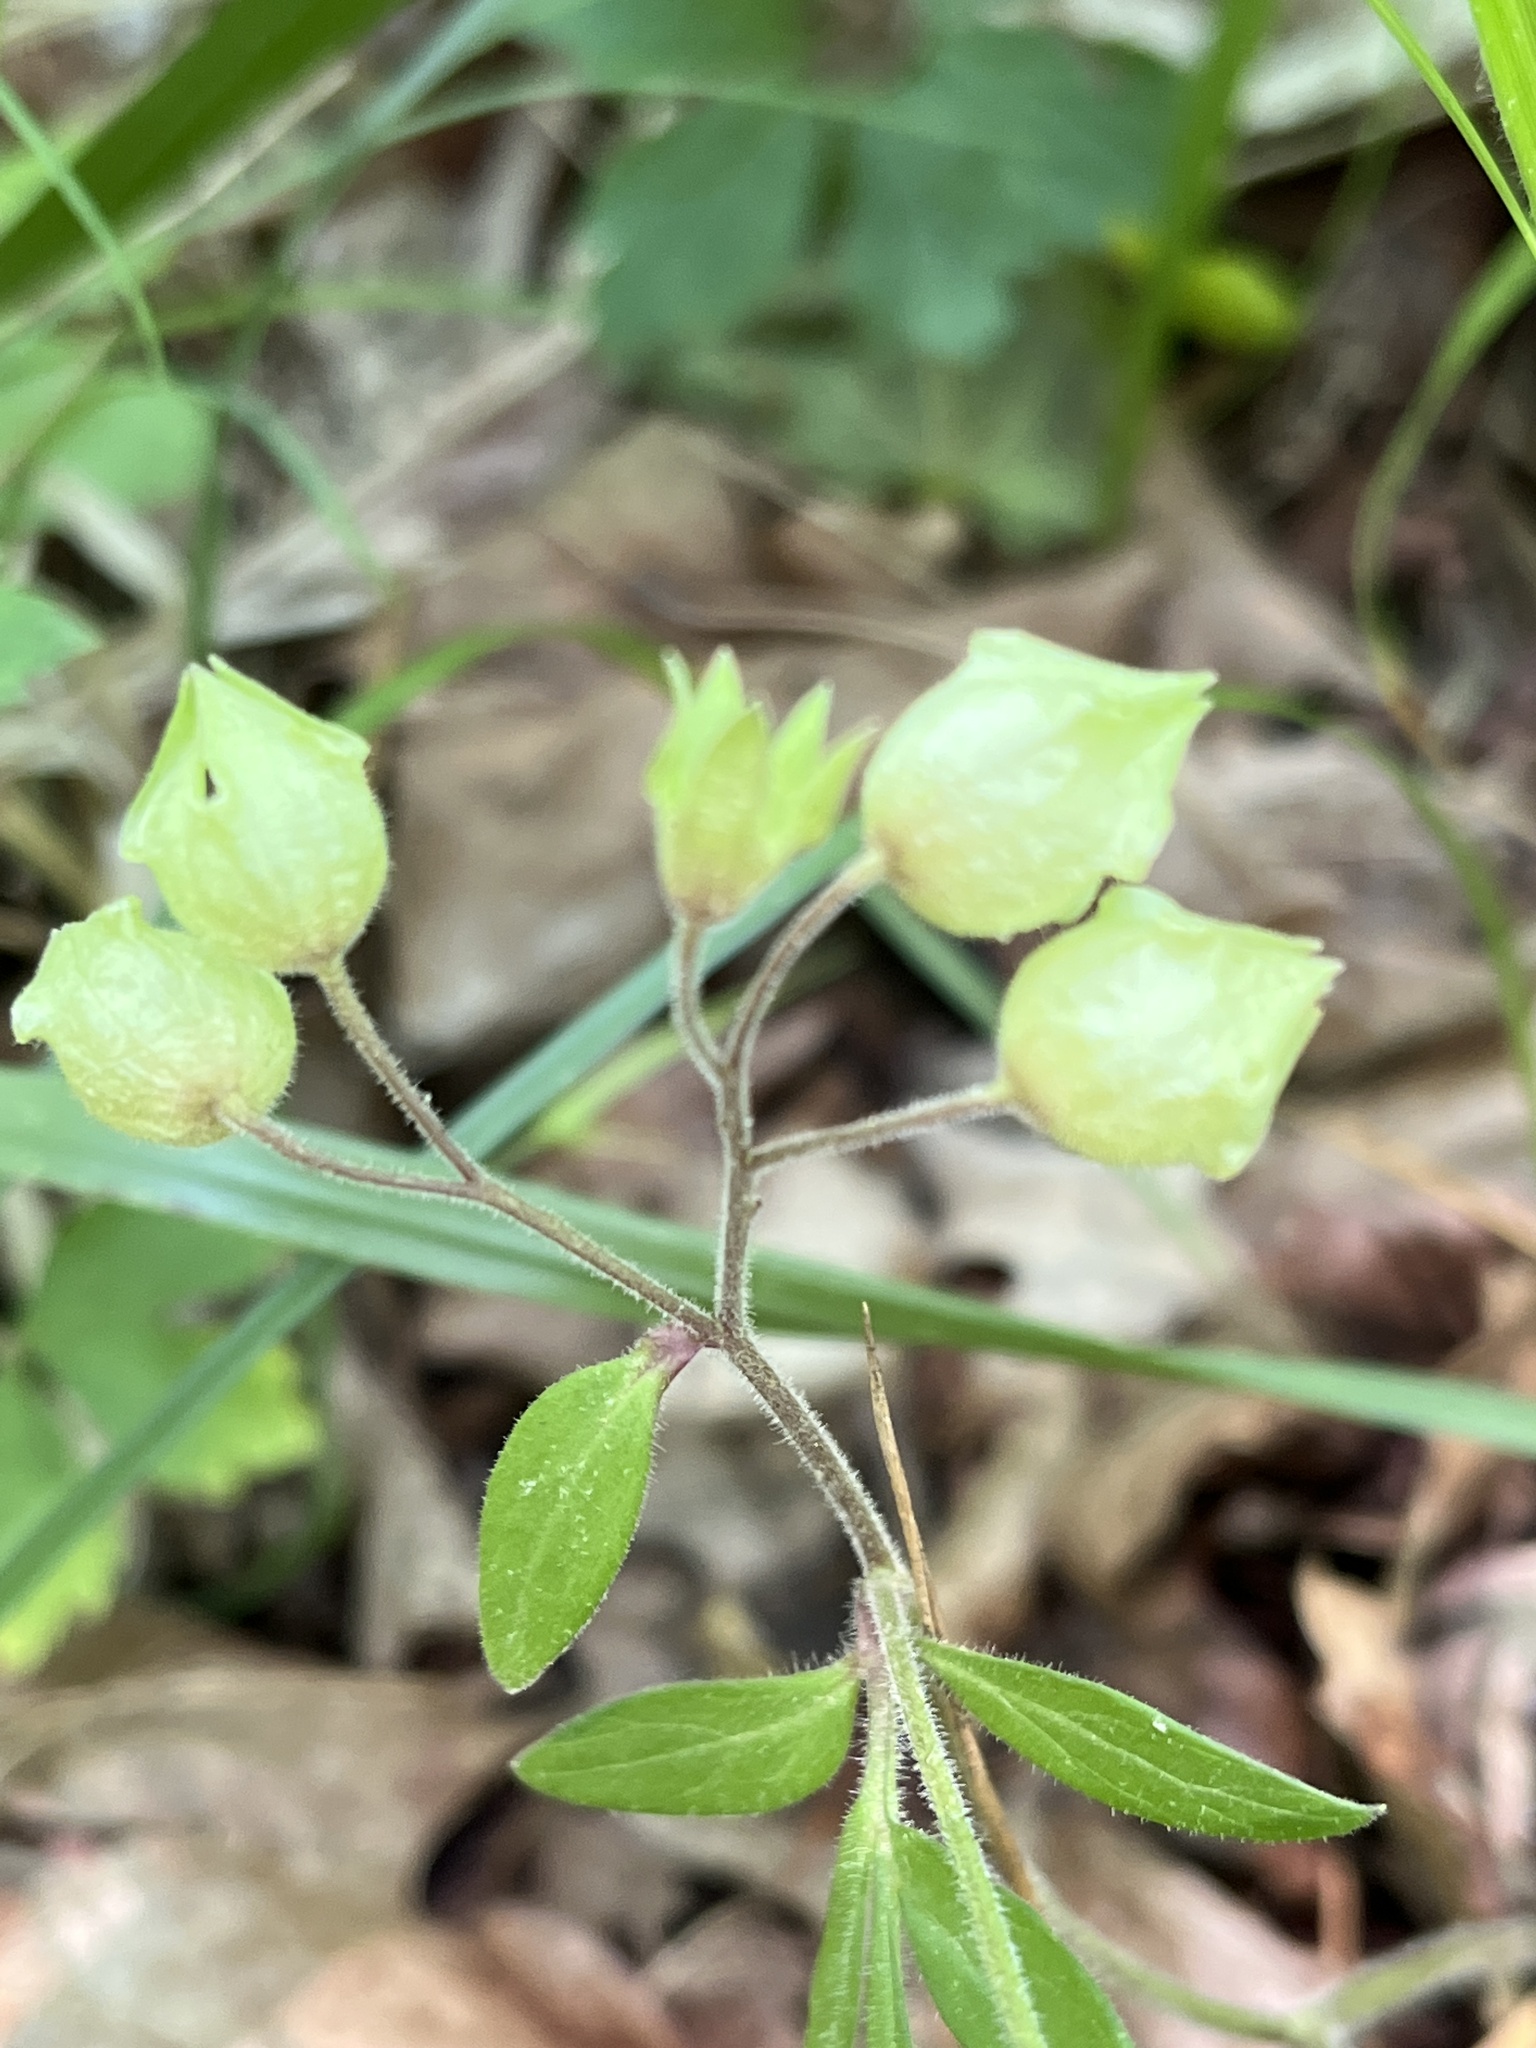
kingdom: Plantae
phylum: Tracheophyta
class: Magnoliopsida
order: Ericales
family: Polemoniaceae
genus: Polemonium
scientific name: Polemonium reptans
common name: Creeping jacob's-ladder
